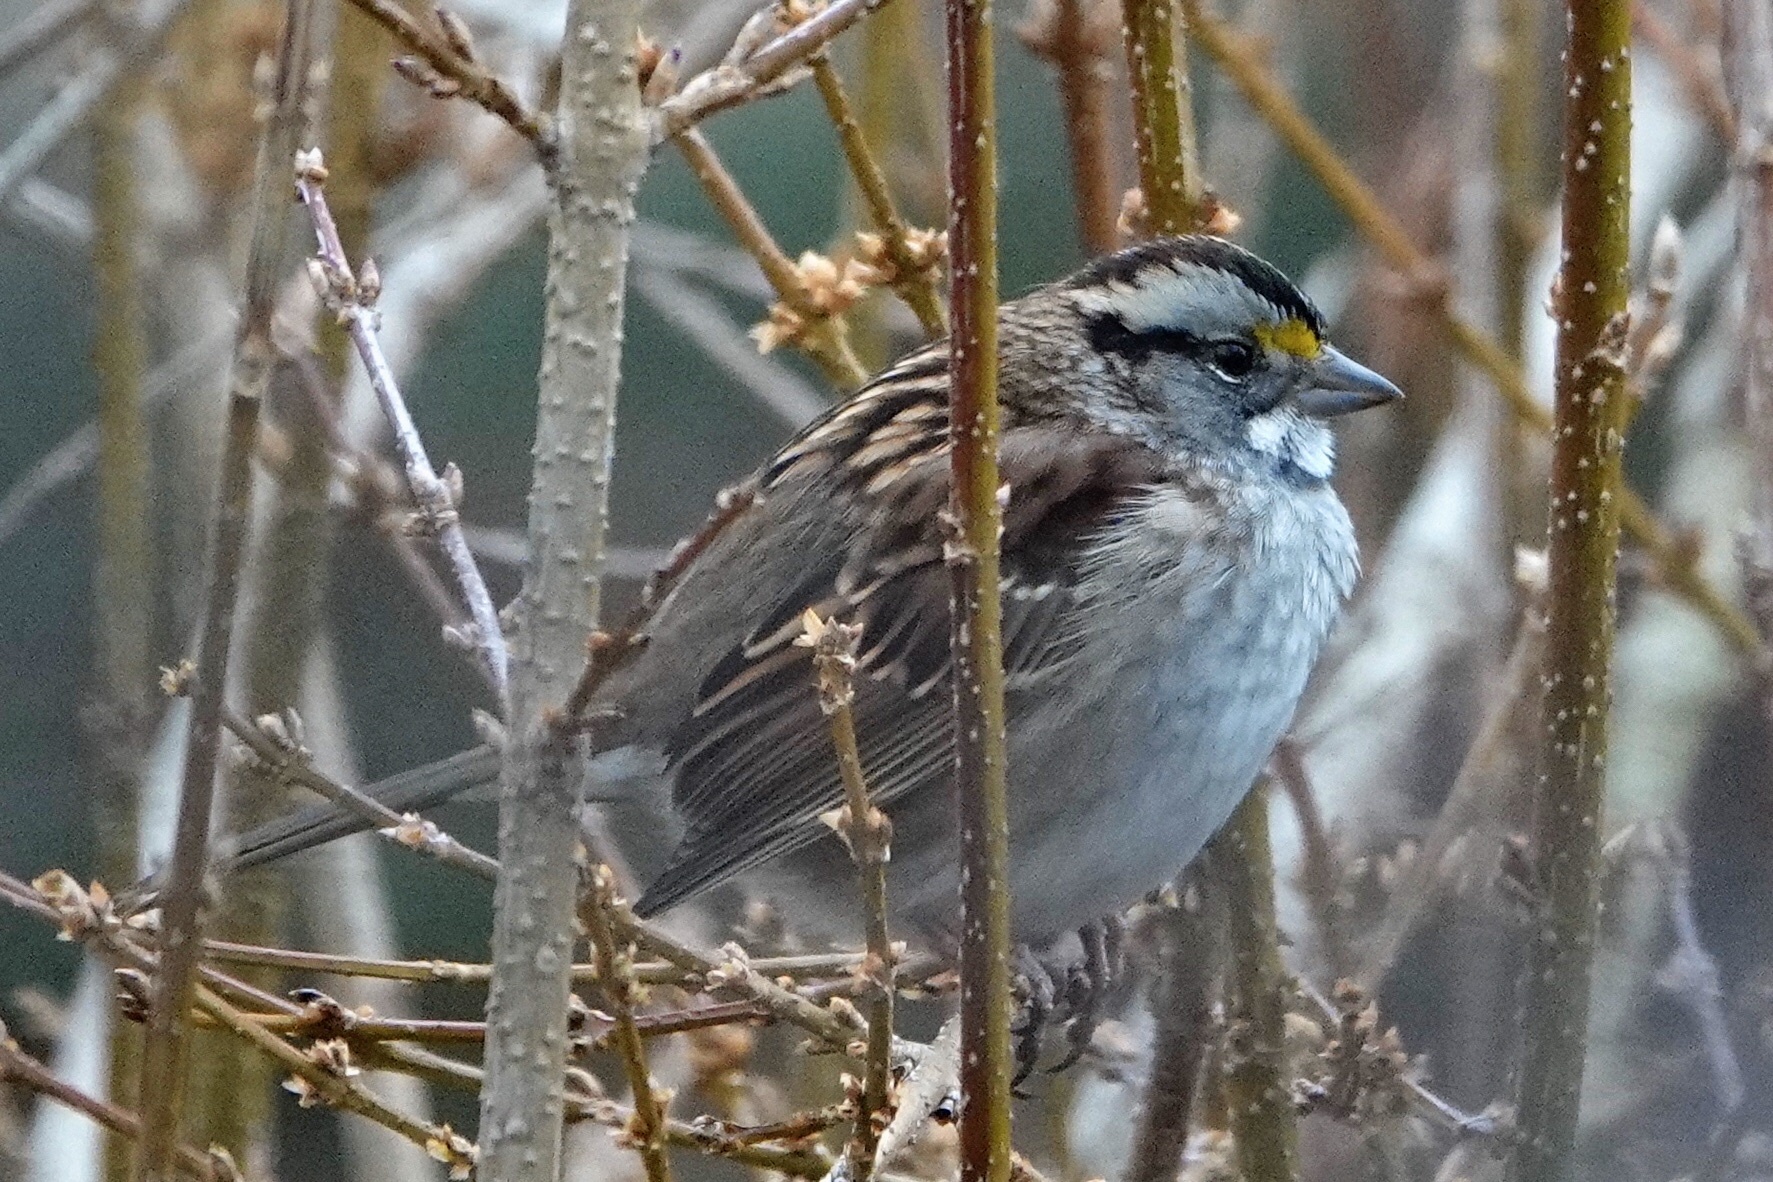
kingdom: Animalia
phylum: Chordata
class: Aves
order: Passeriformes
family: Passerellidae
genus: Zonotrichia
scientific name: Zonotrichia albicollis
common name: White-throated sparrow
